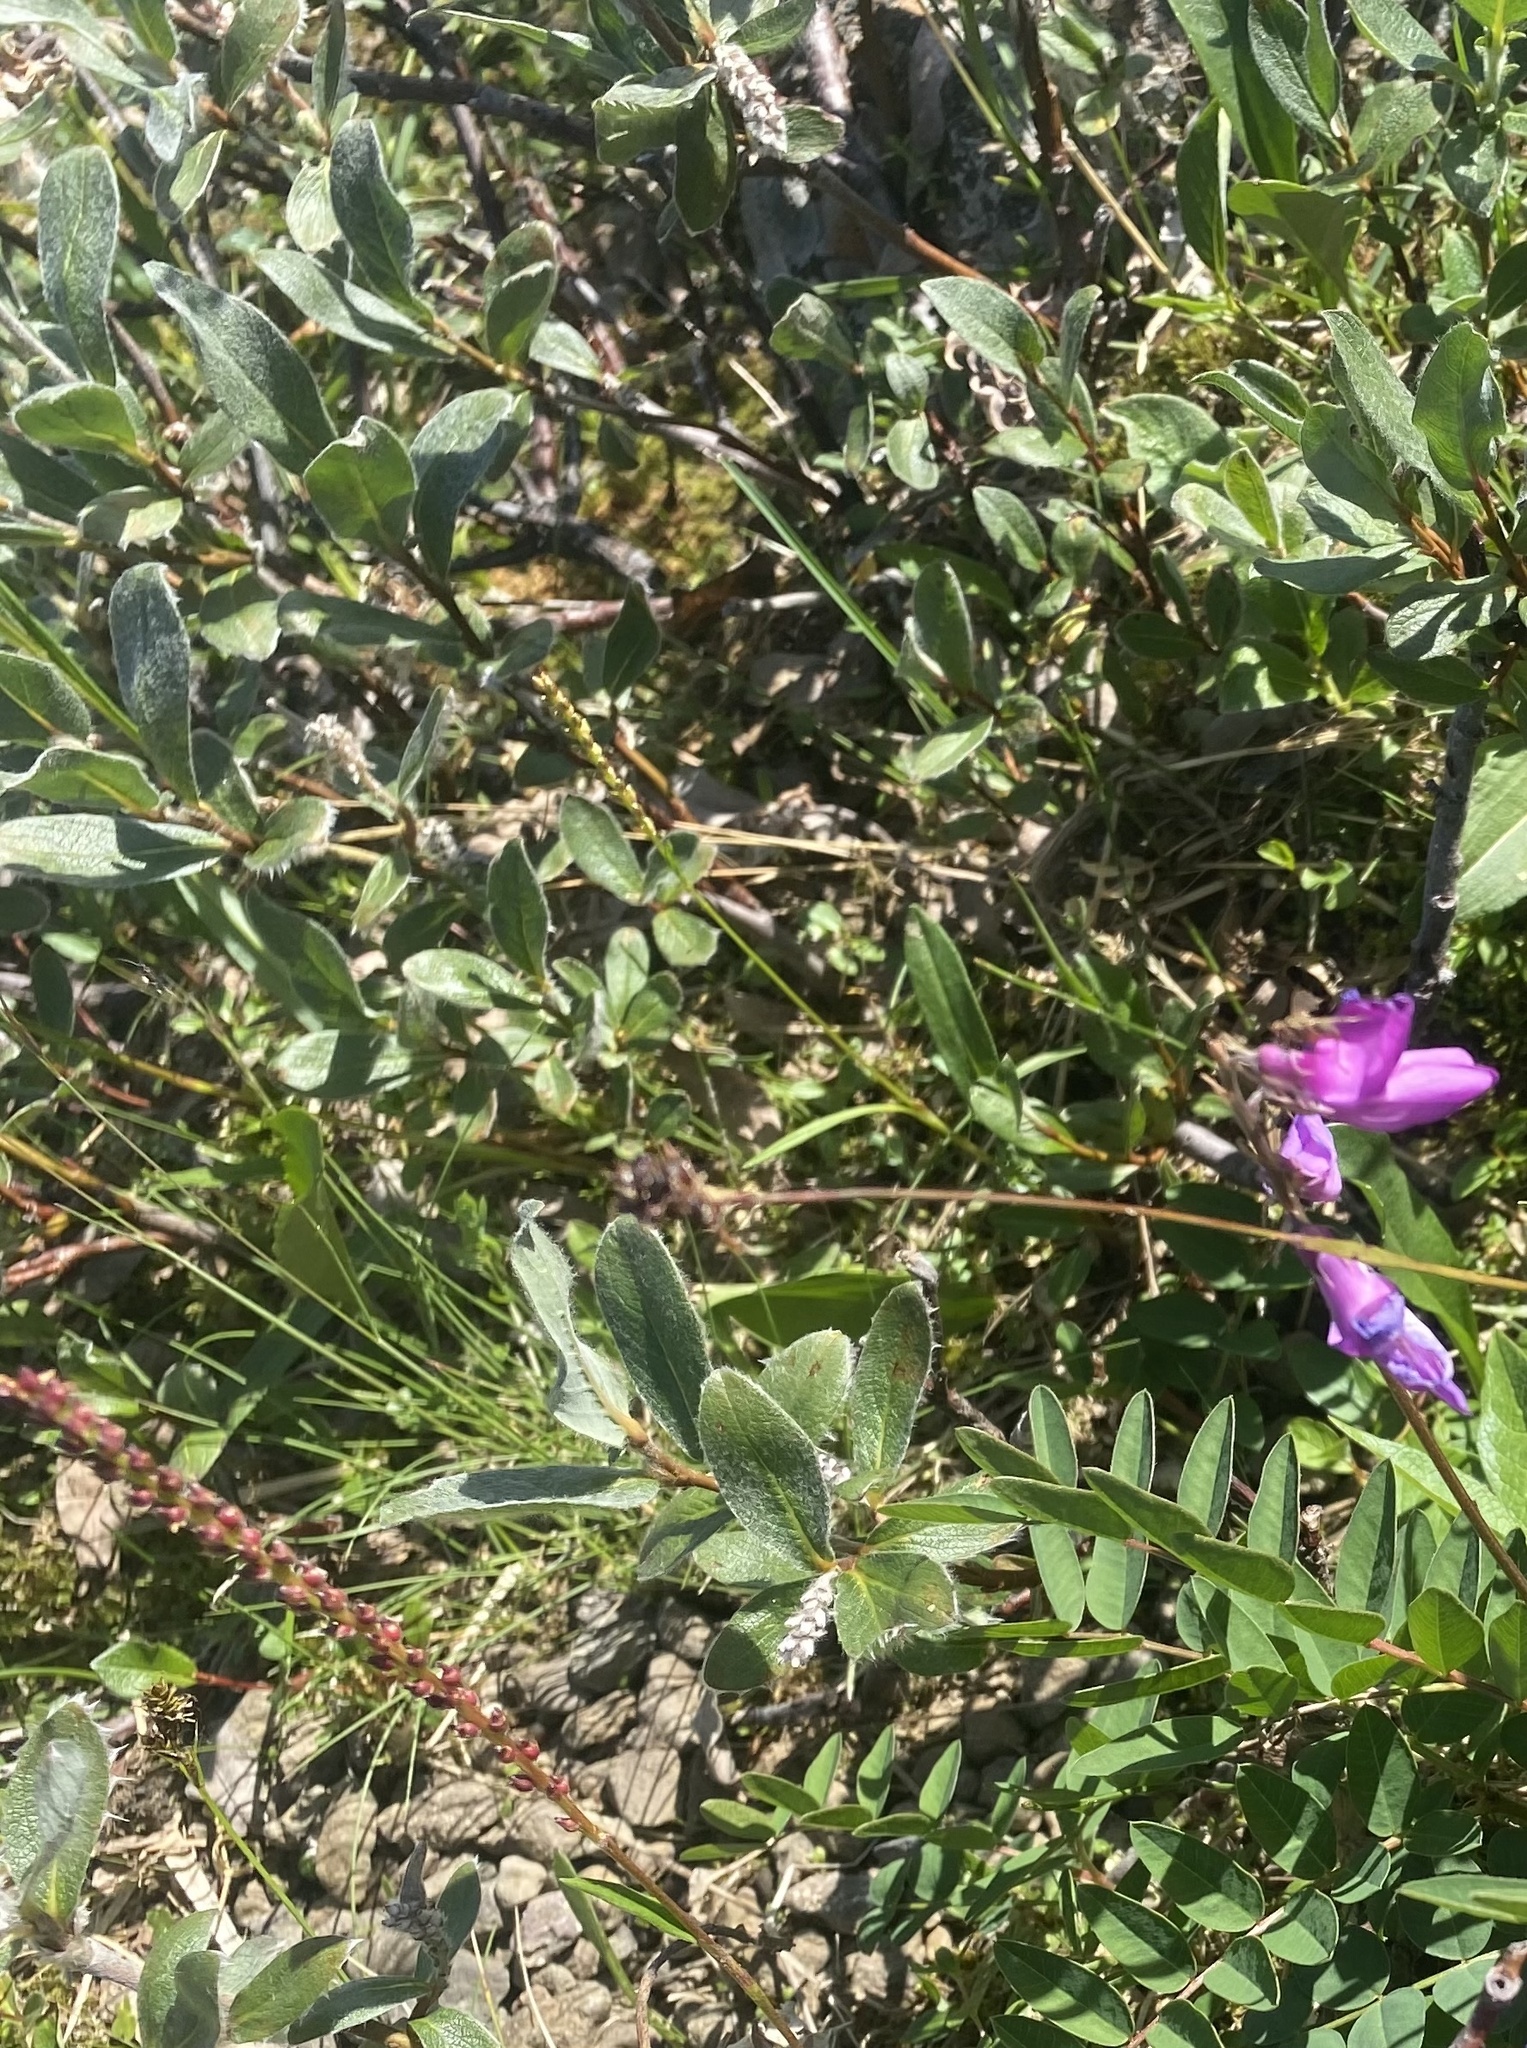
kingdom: Plantae
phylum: Tracheophyta
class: Magnoliopsida
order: Malpighiales
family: Salicaceae
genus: Salix
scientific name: Salix glauca
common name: Glaucous willow
